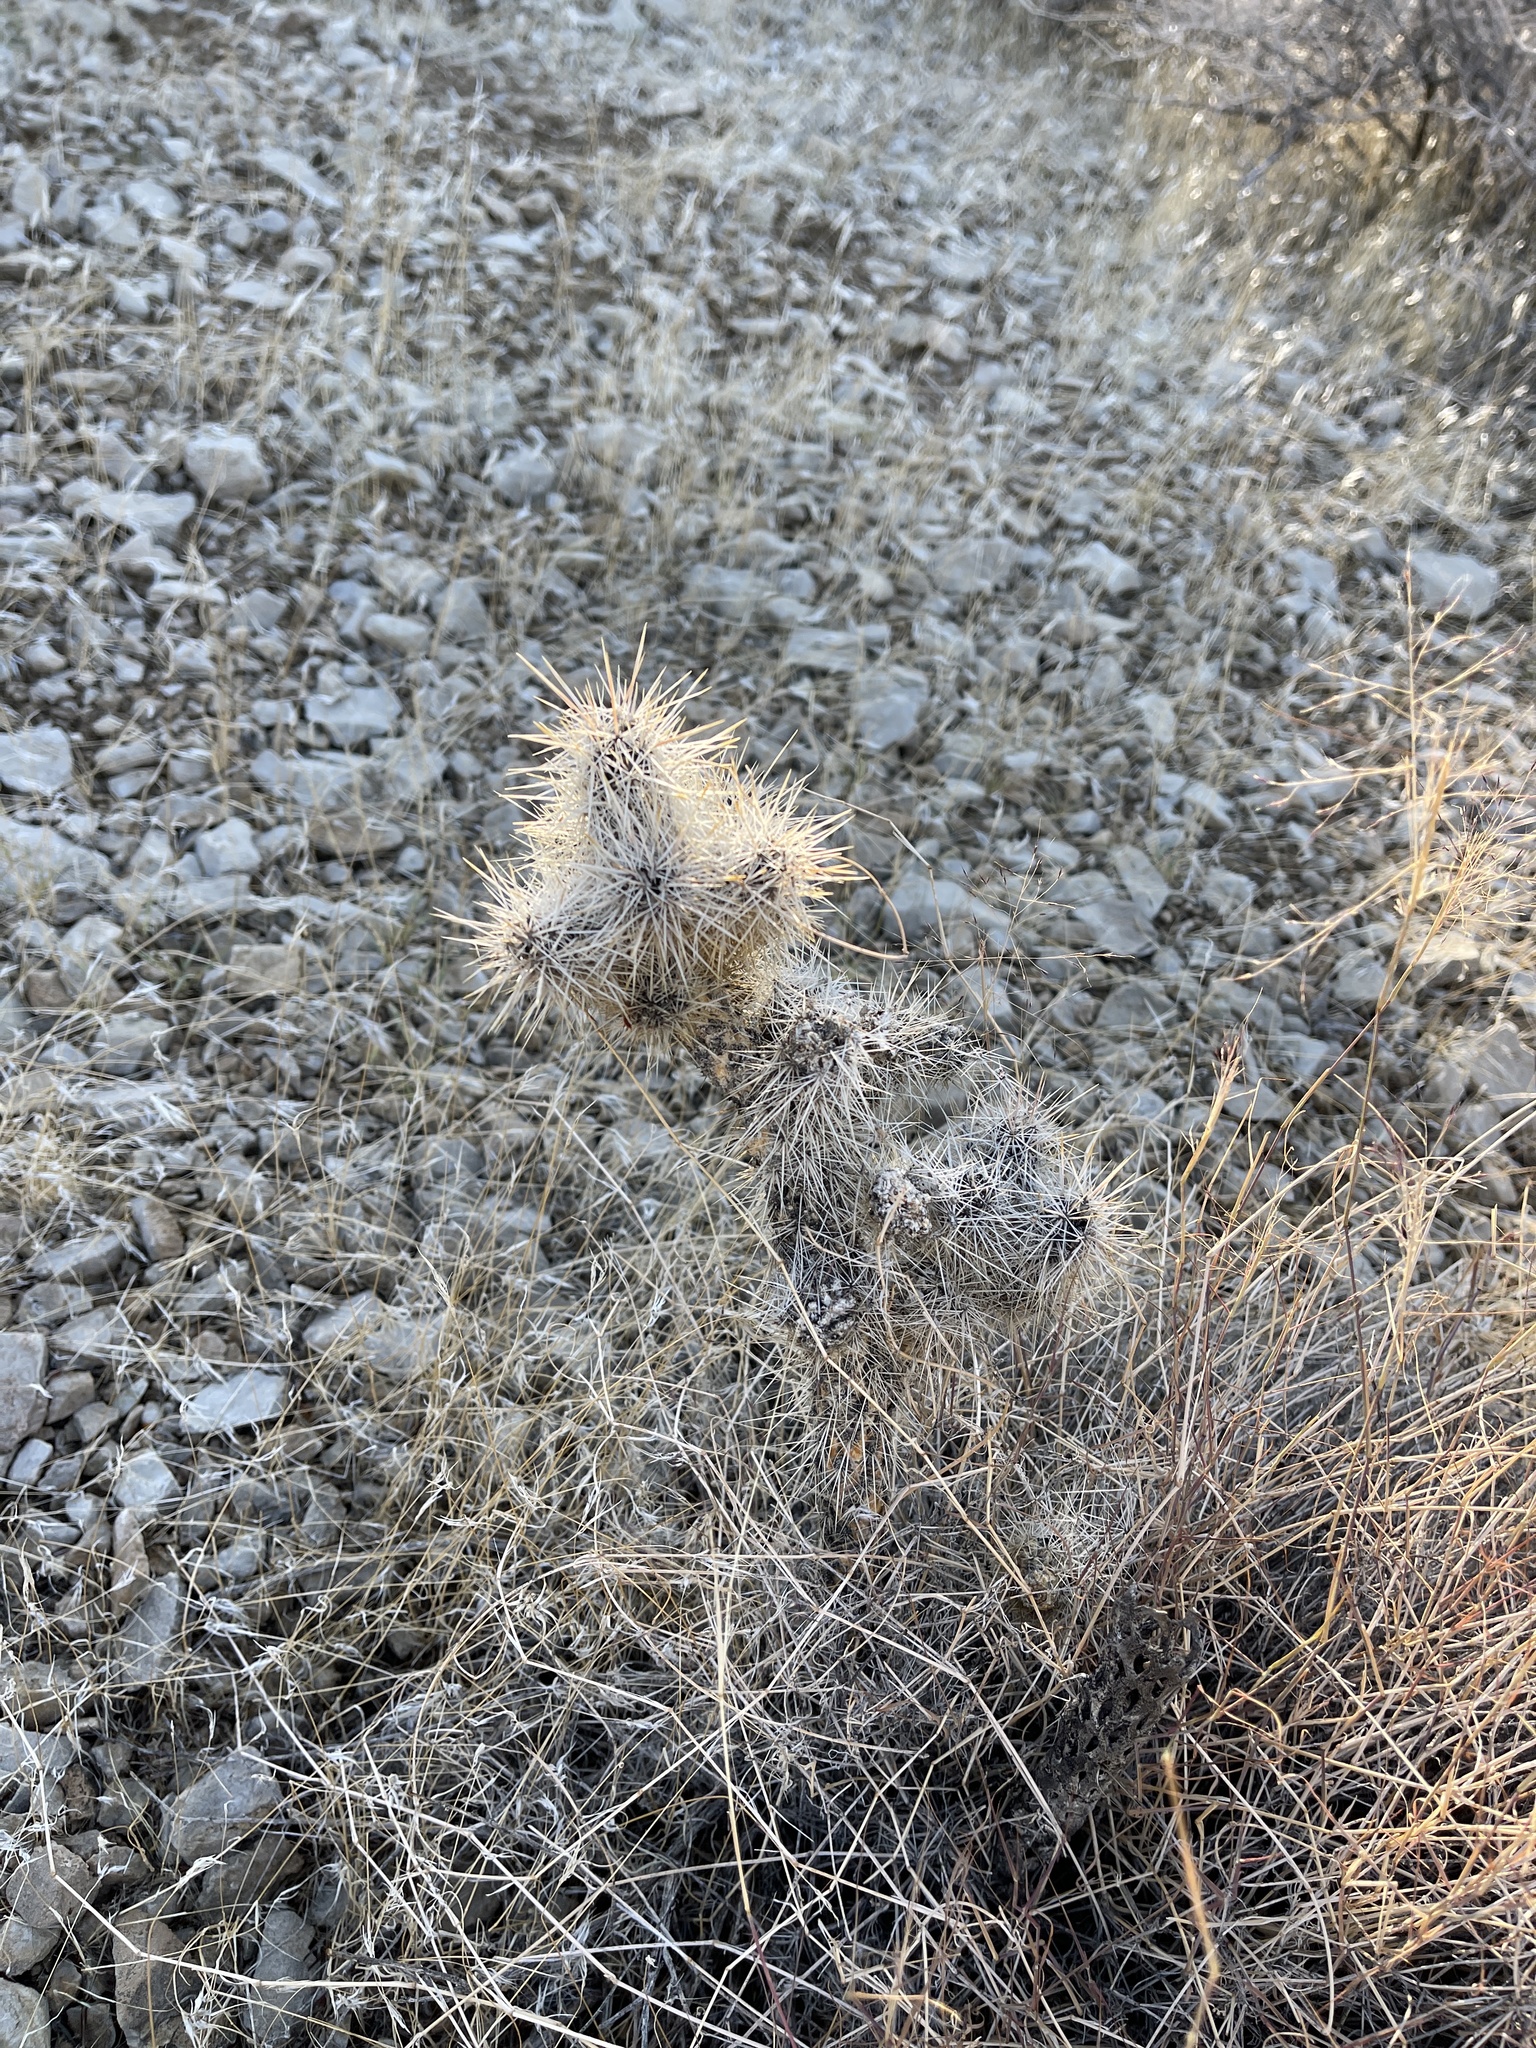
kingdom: Plantae
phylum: Tracheophyta
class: Magnoliopsida
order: Caryophyllales
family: Cactaceae
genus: Cylindropuntia
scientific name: Cylindropuntia echinocarpa
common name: Ground cholla
